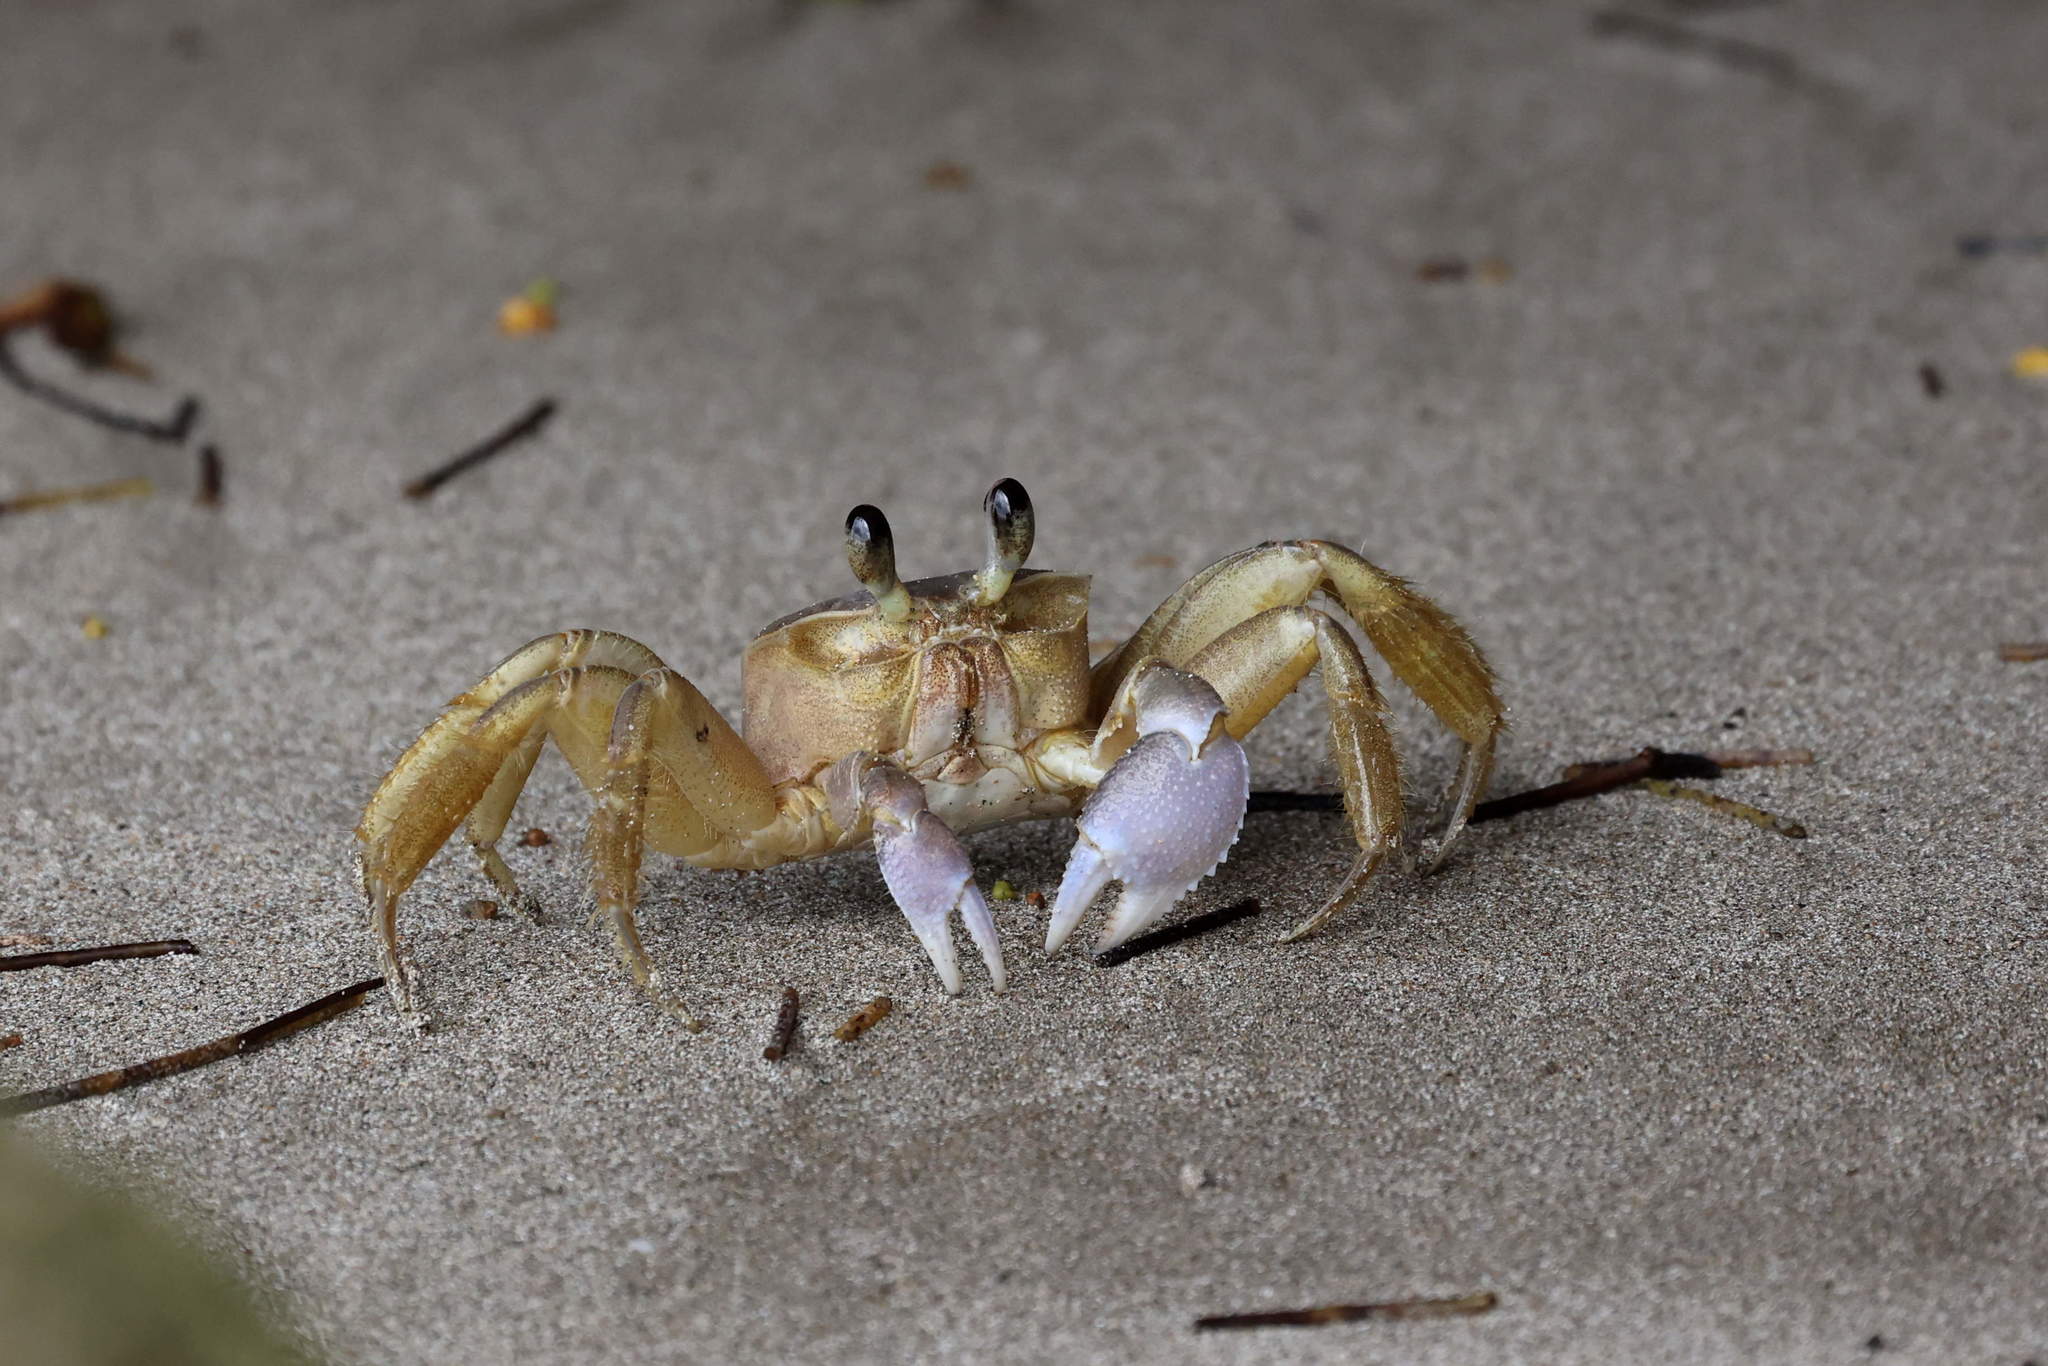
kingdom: Animalia
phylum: Arthropoda
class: Malacostraca
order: Decapoda
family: Ocypodidae
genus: Ocypode
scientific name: Ocypode quadrata
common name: Ghost crab
